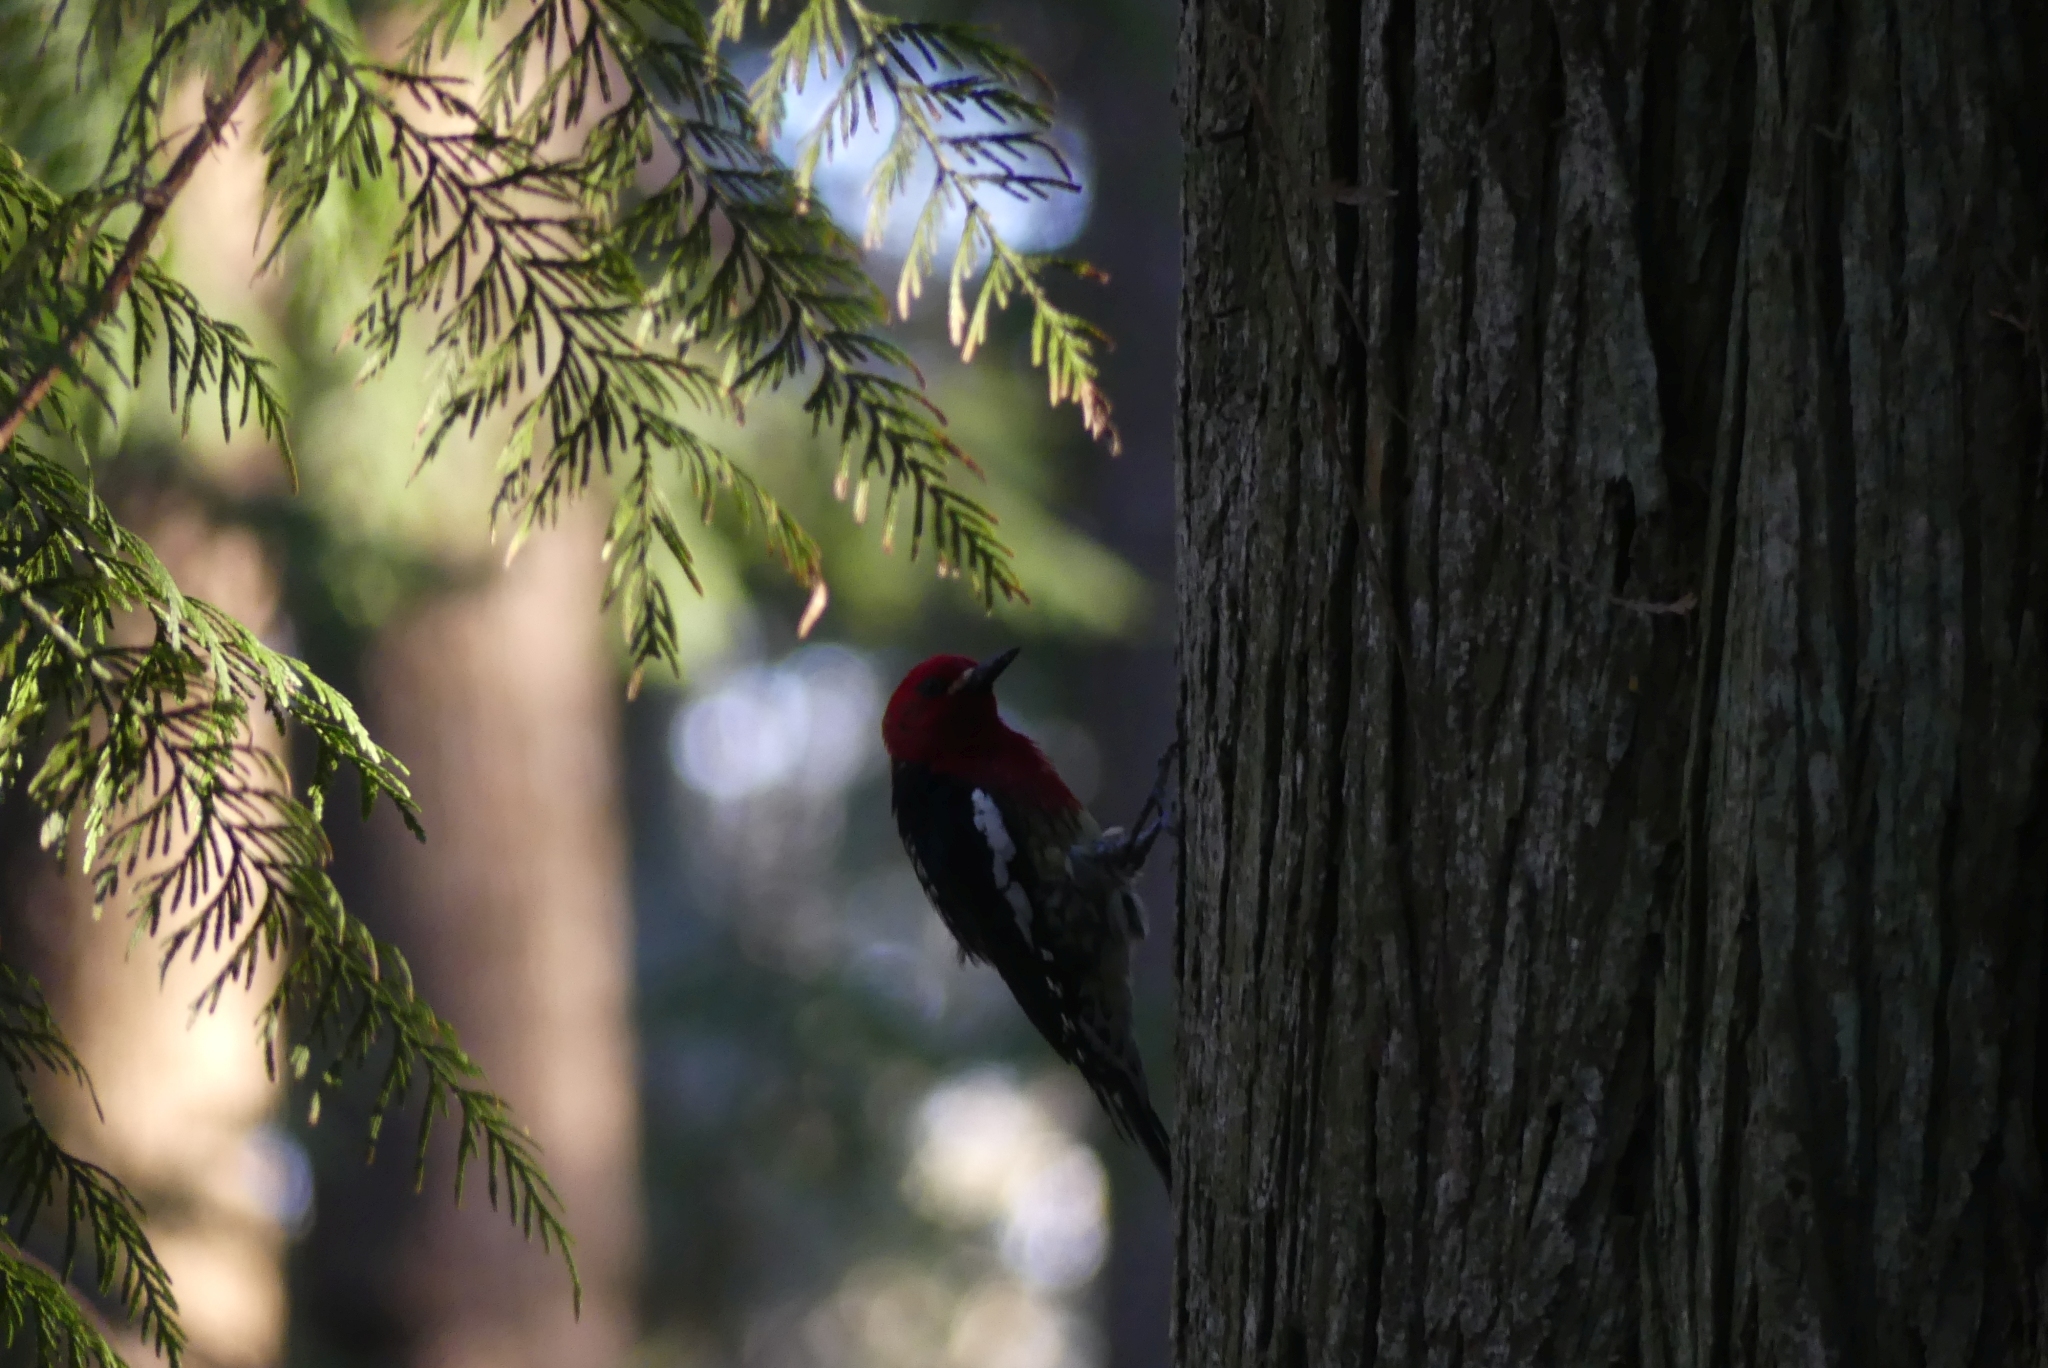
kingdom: Animalia
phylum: Chordata
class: Aves
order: Piciformes
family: Picidae
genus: Sphyrapicus
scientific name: Sphyrapicus ruber
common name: Red-breasted sapsucker
